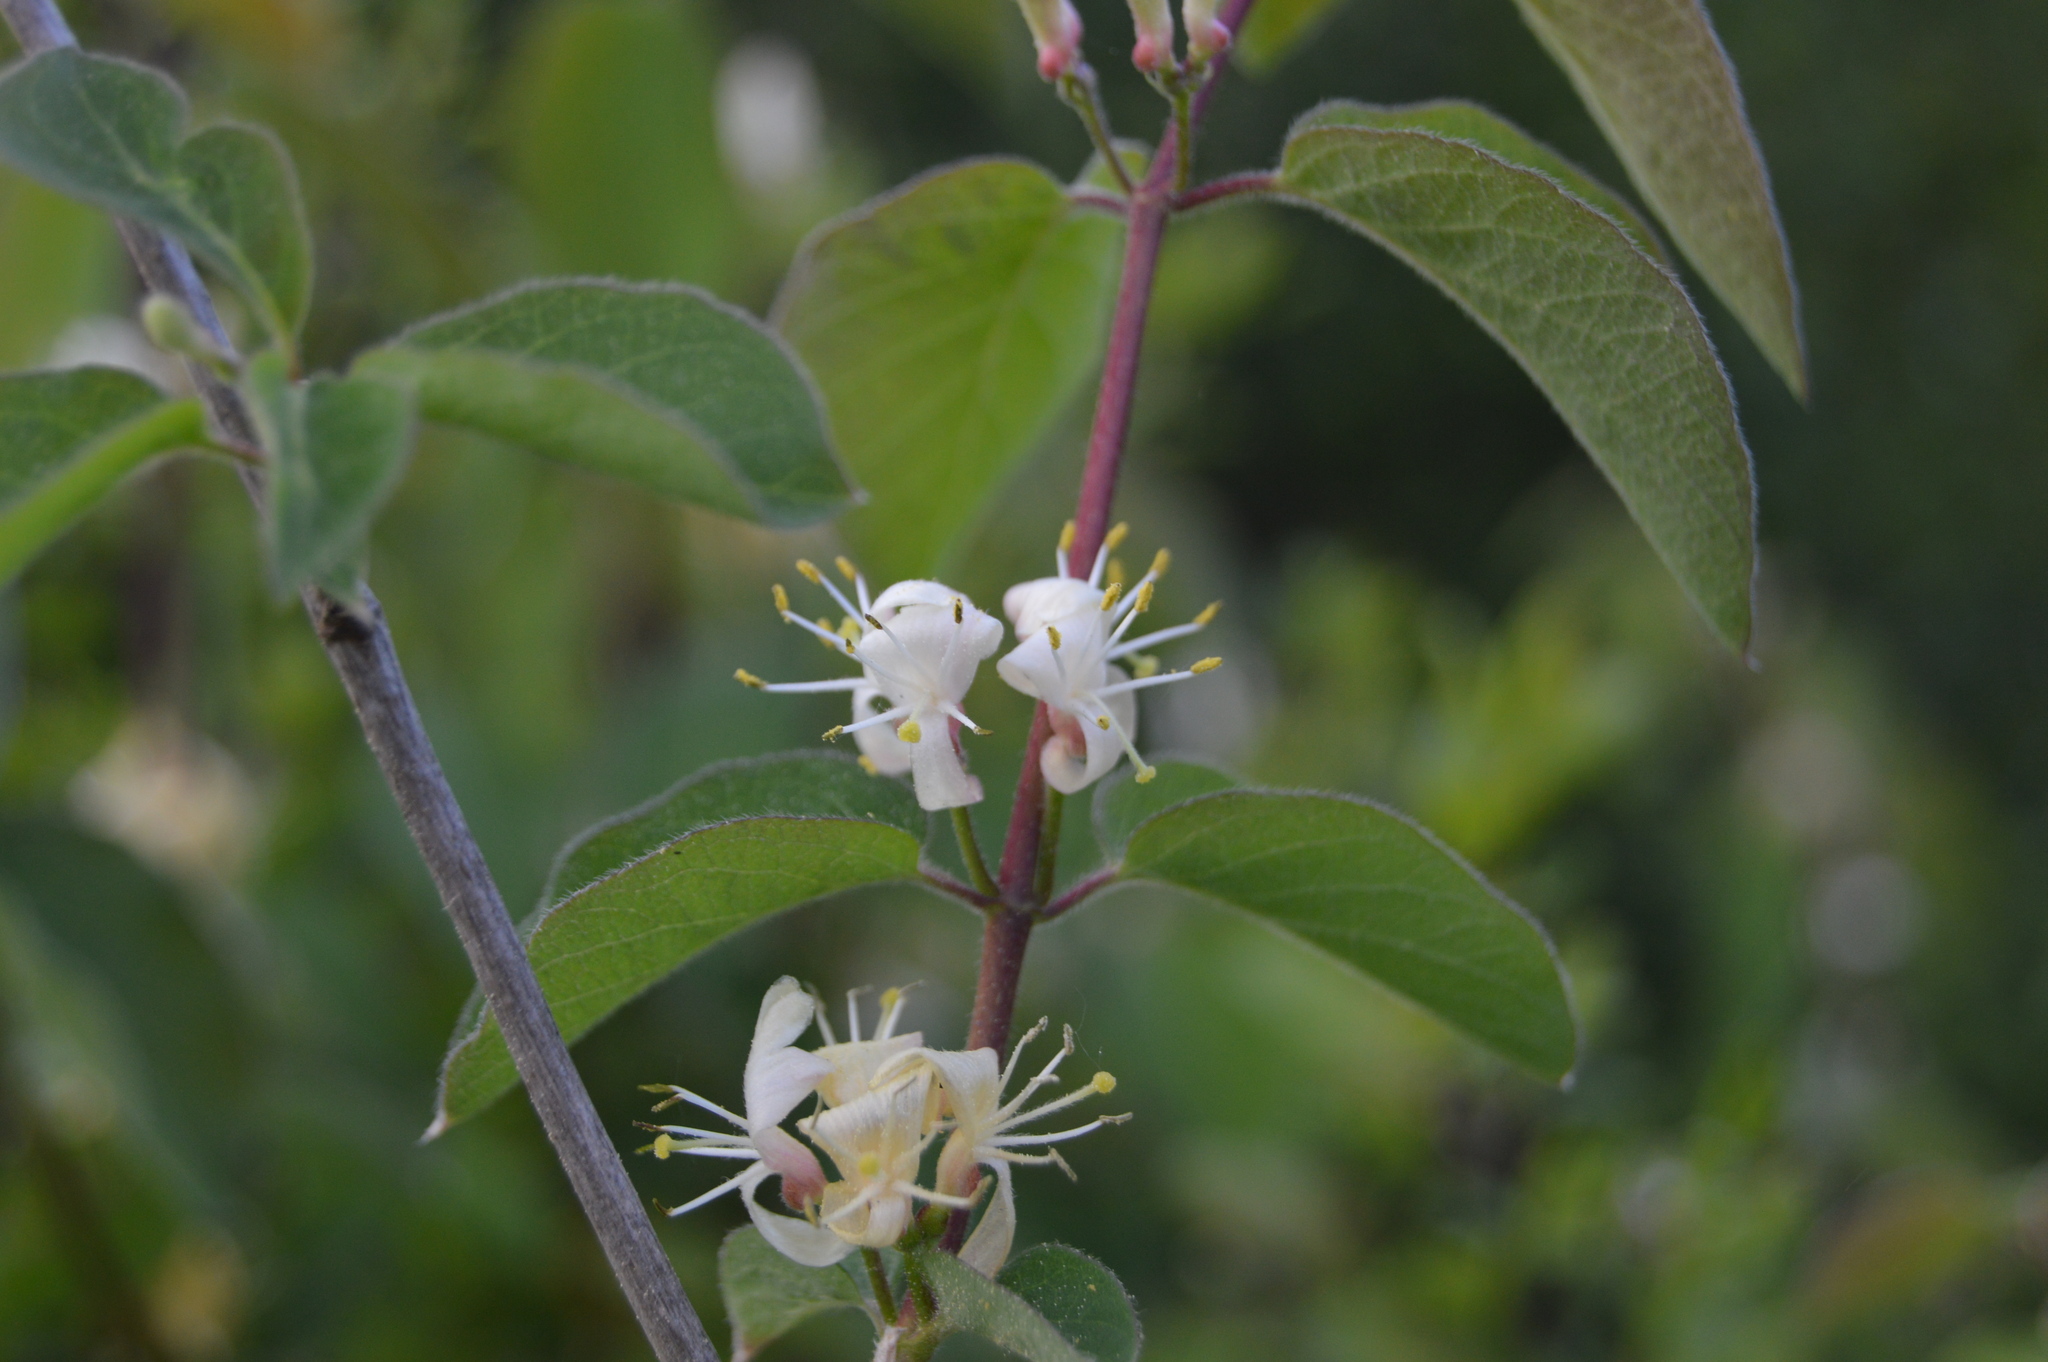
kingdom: Plantae
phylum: Tracheophyta
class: Magnoliopsida
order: Dipsacales
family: Caprifoliaceae
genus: Lonicera
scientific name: Lonicera xylosteum
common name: Fly honeysuckle
